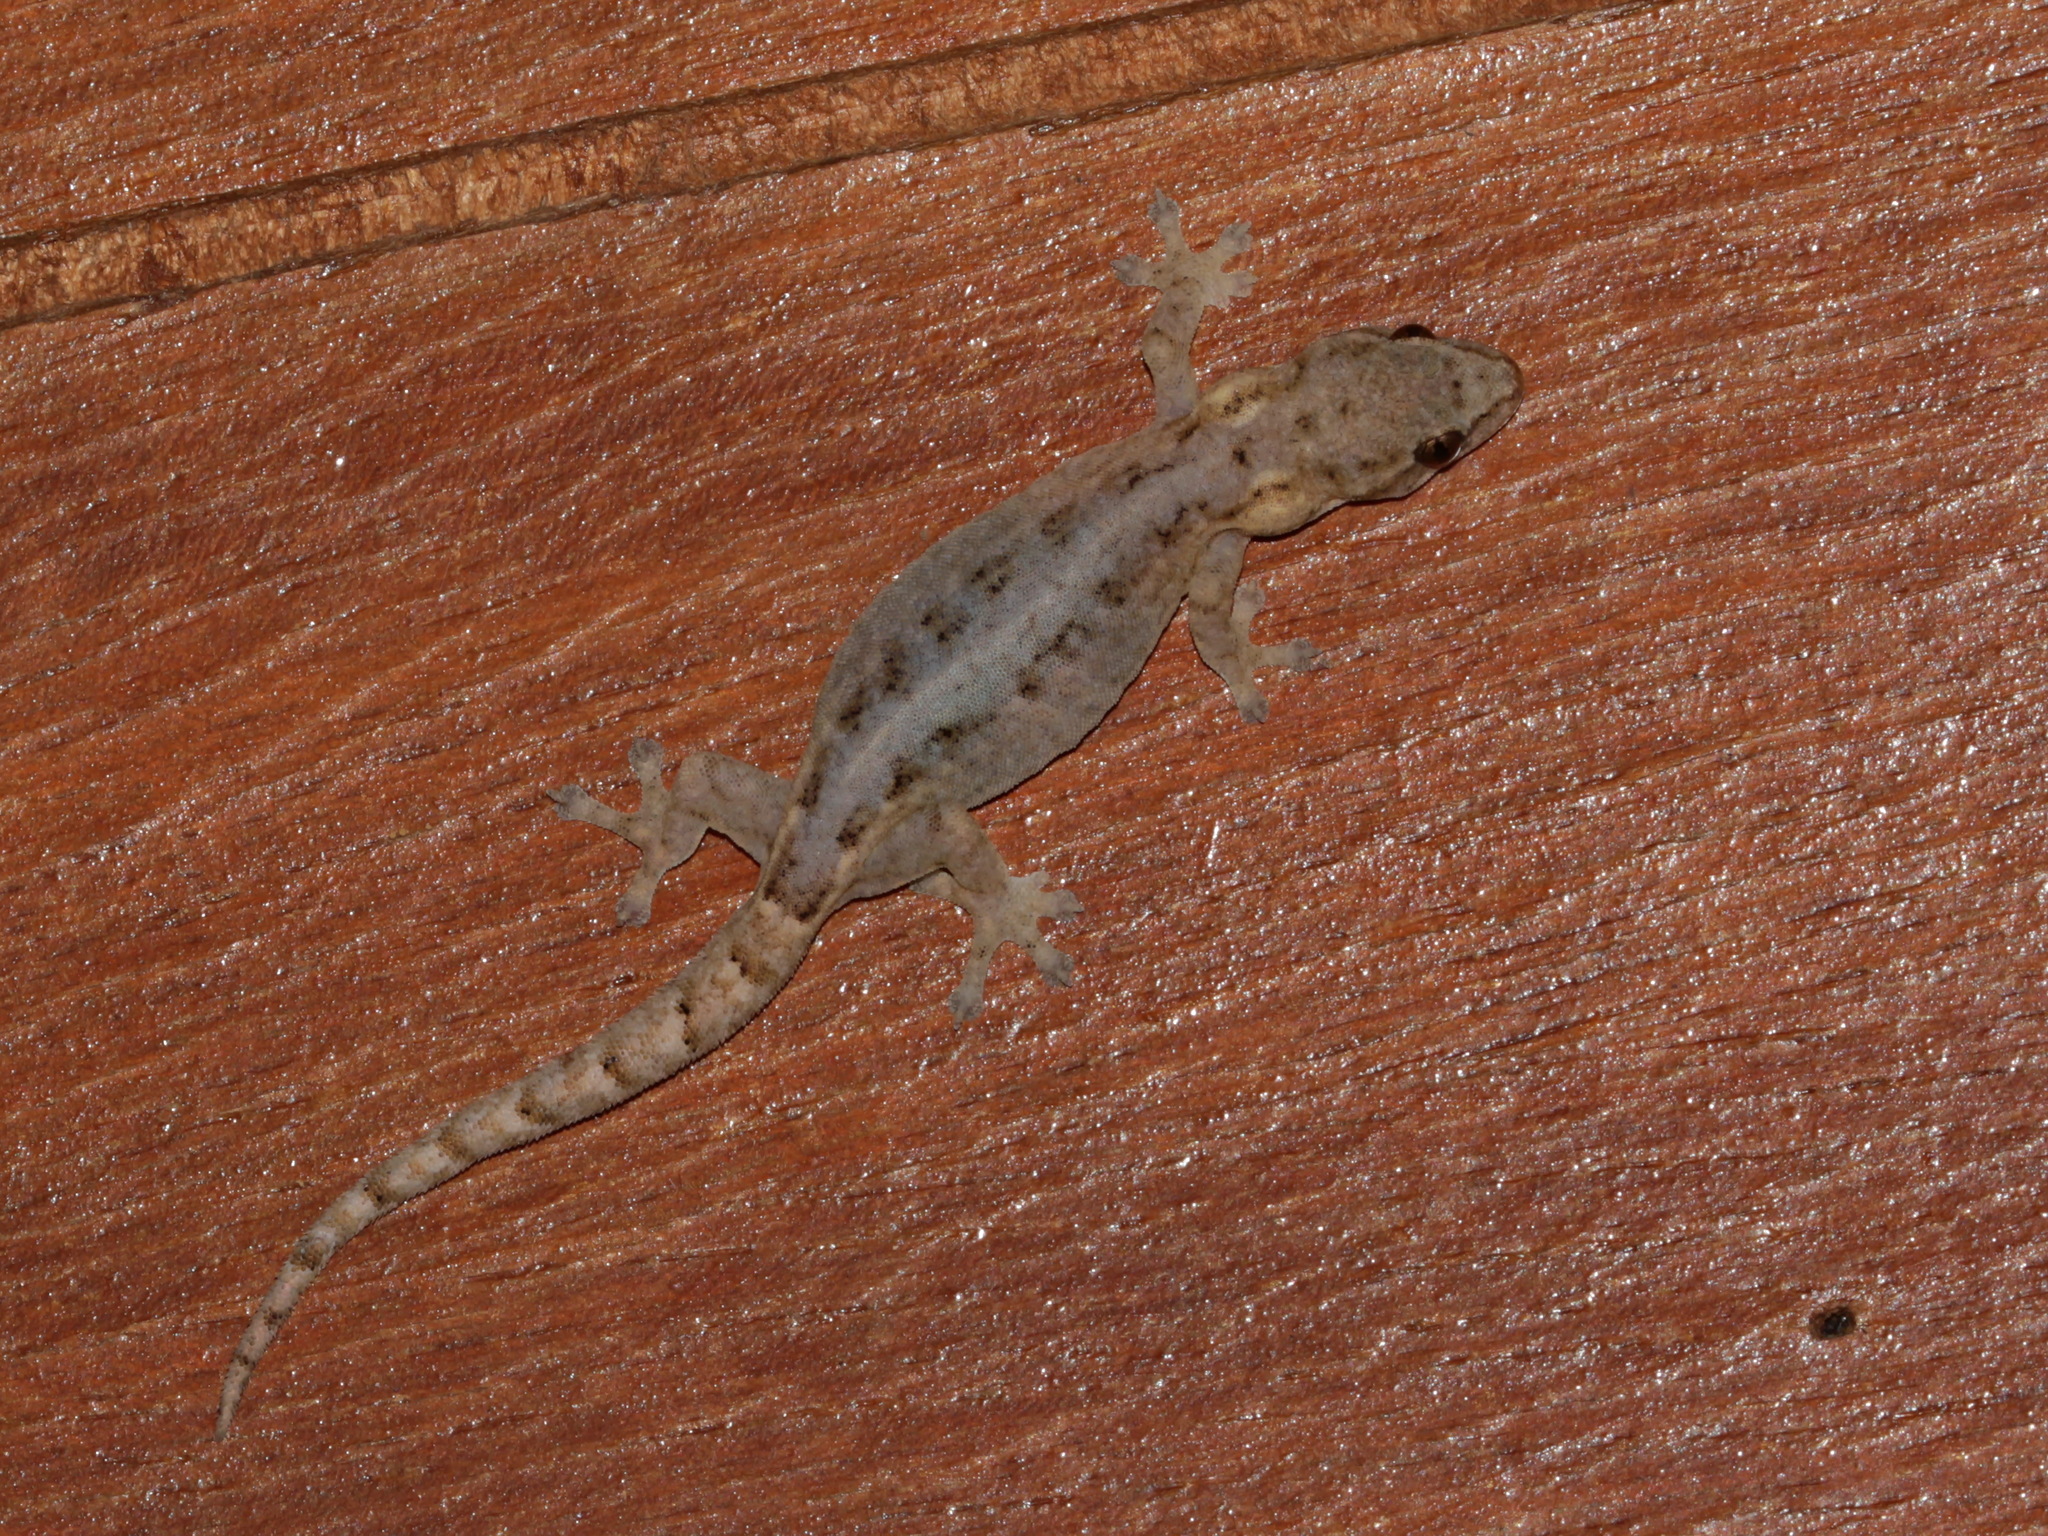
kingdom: Animalia
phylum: Chordata
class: Squamata
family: Gekkonidae
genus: Hemiphyllodactylus
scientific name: Hemiphyllodactylus chiangmaiensis
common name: Chiang mai dwarf gecko
